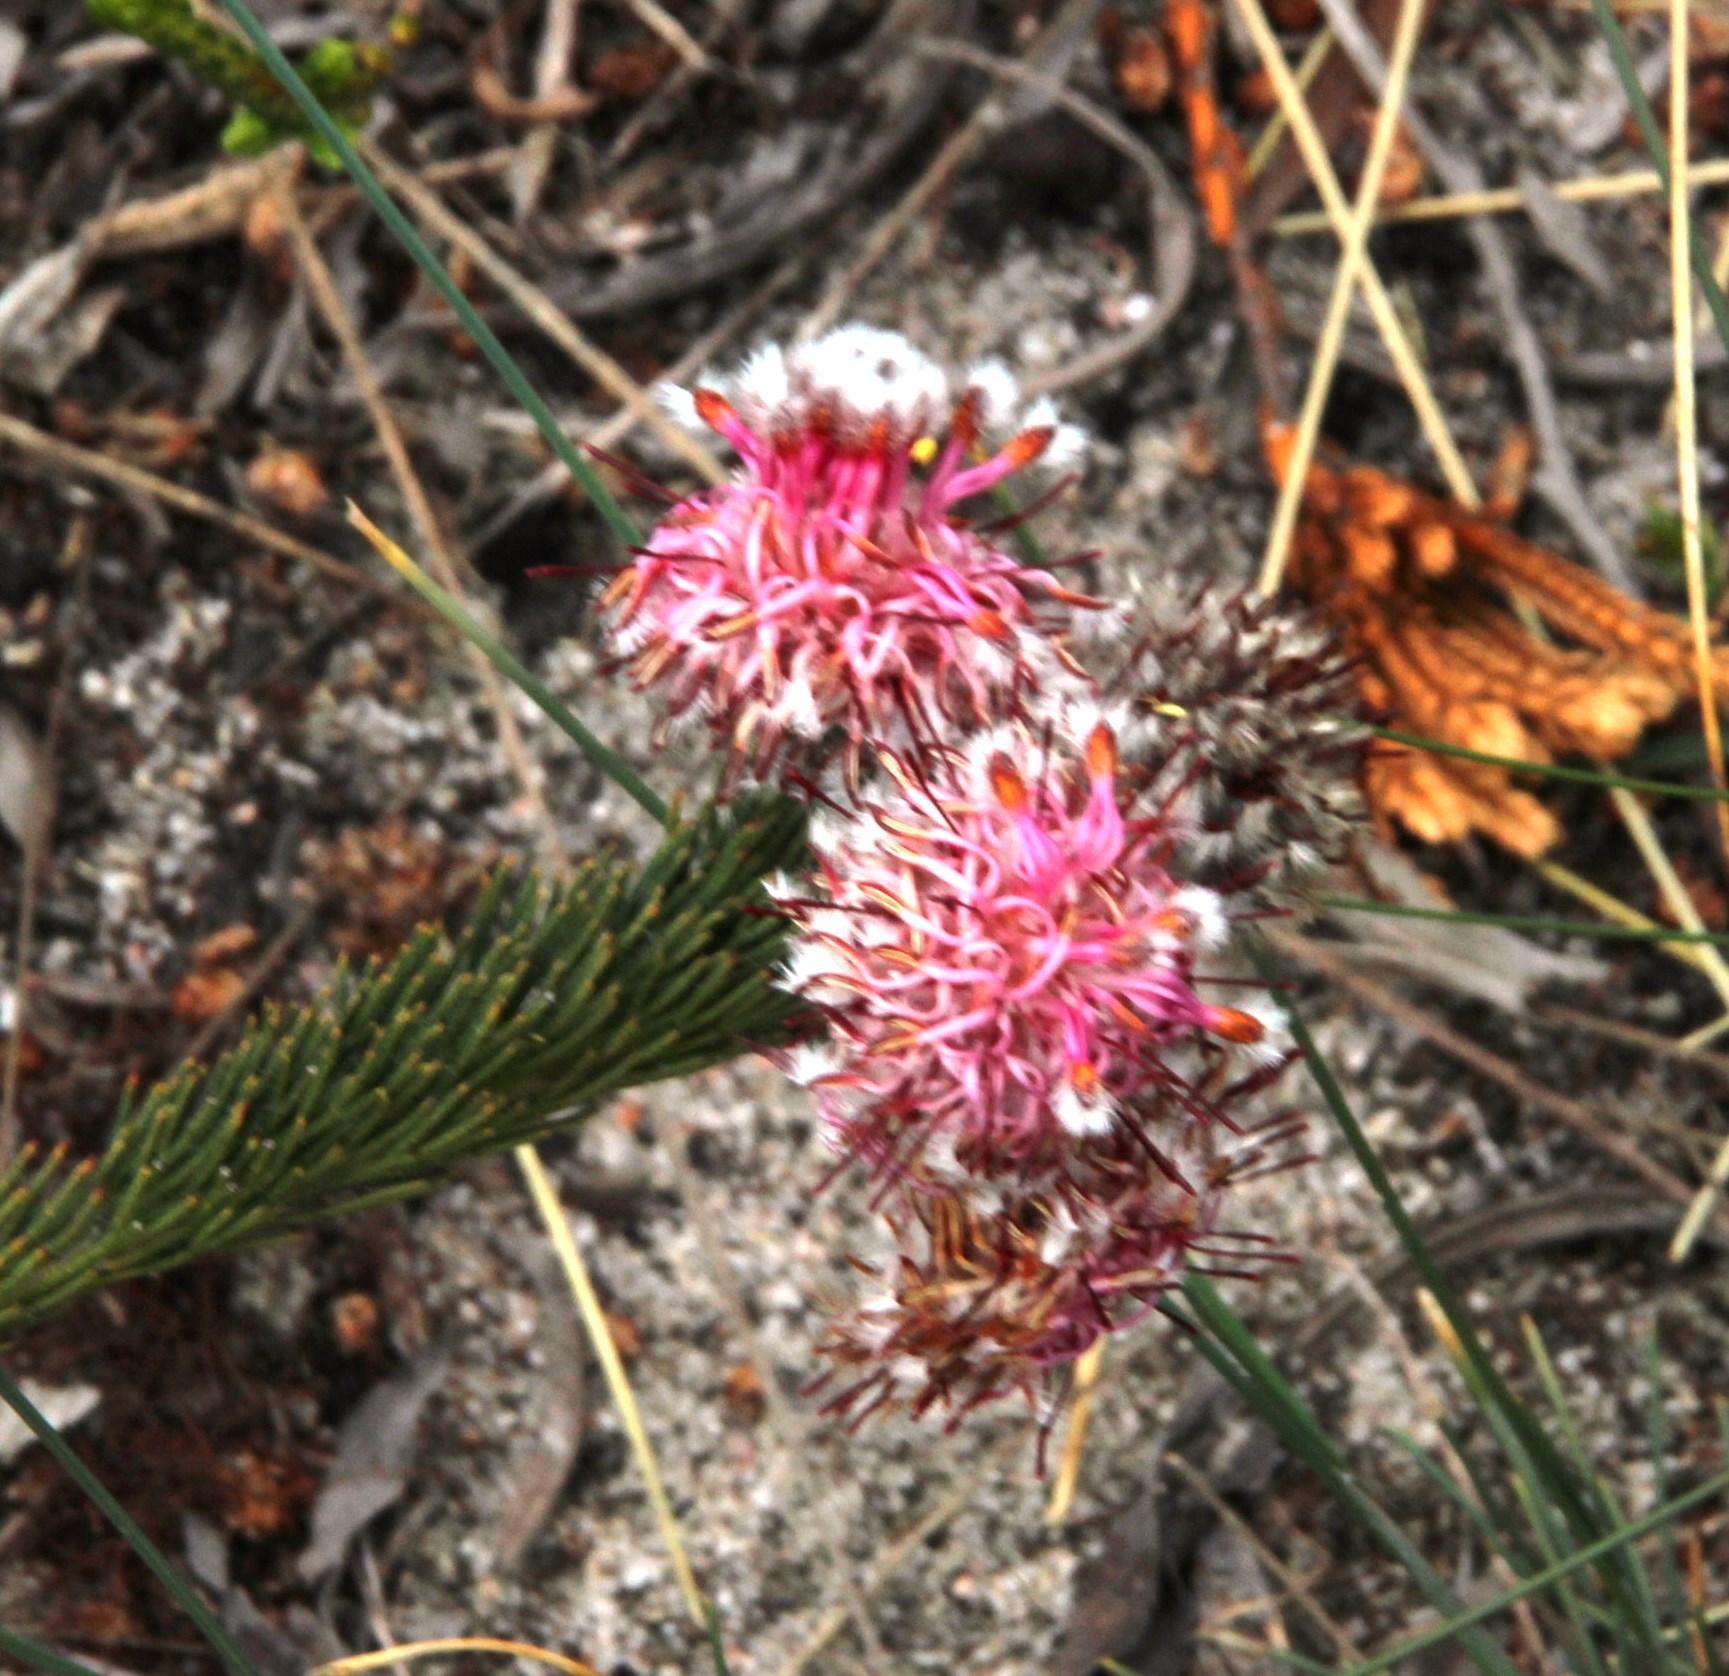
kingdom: Plantae
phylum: Tracheophyta
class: Magnoliopsida
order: Proteales
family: Proteaceae
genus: Serruria
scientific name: Serruria trilopha
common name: Trident spiderhead
